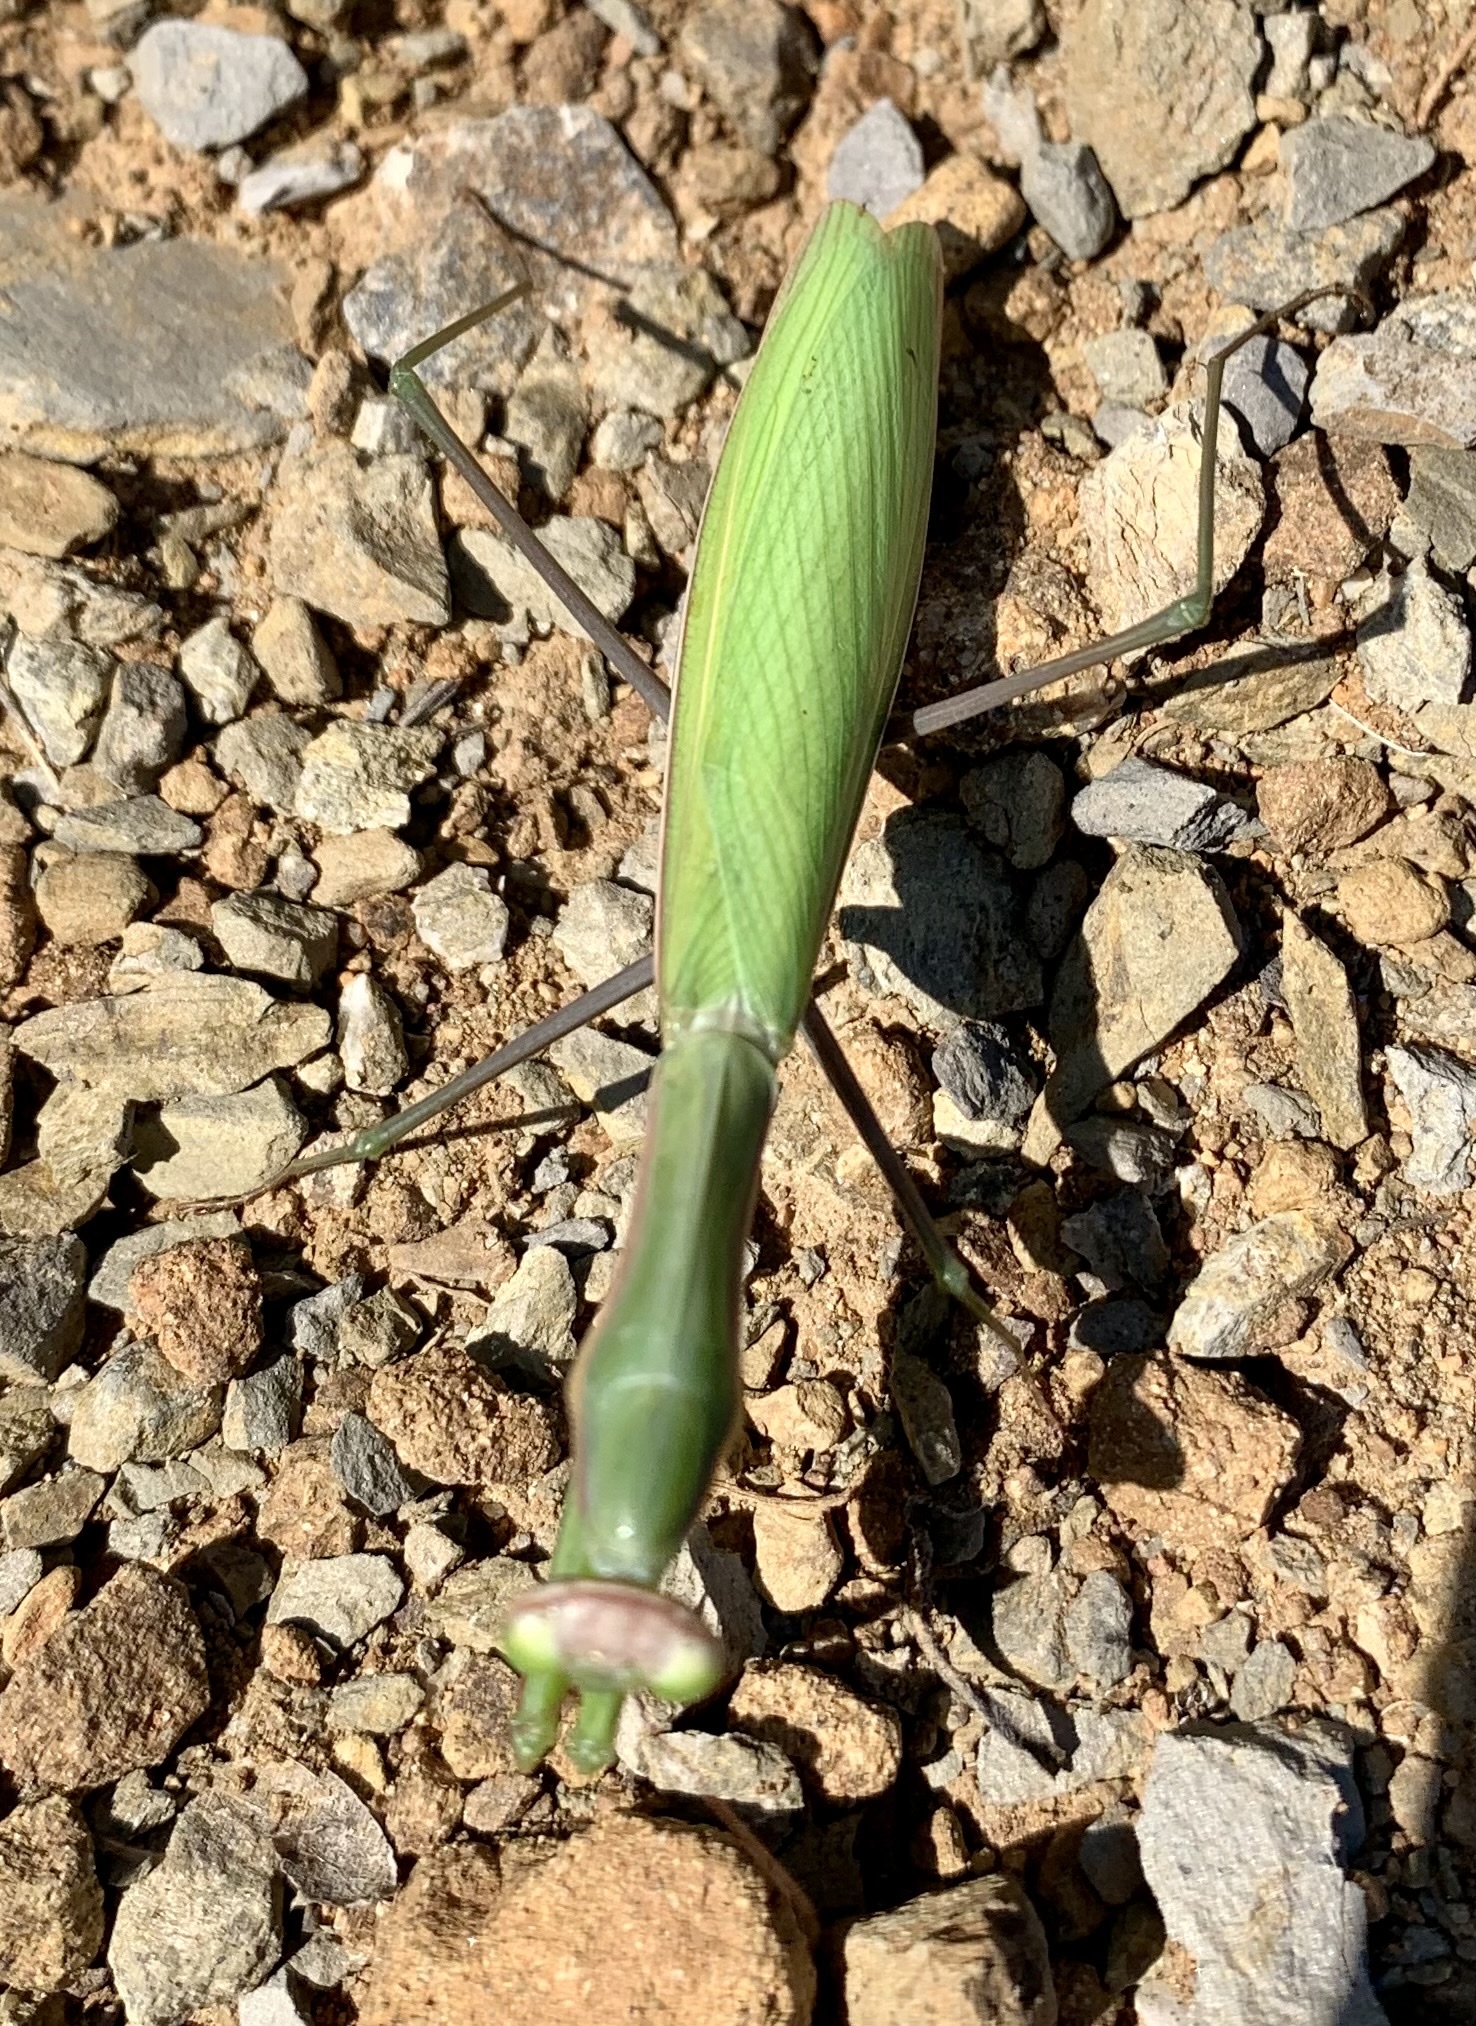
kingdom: Animalia
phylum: Arthropoda
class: Insecta
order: Mantodea
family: Mantidae
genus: Mantis
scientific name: Mantis religiosa
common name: Praying mantis
